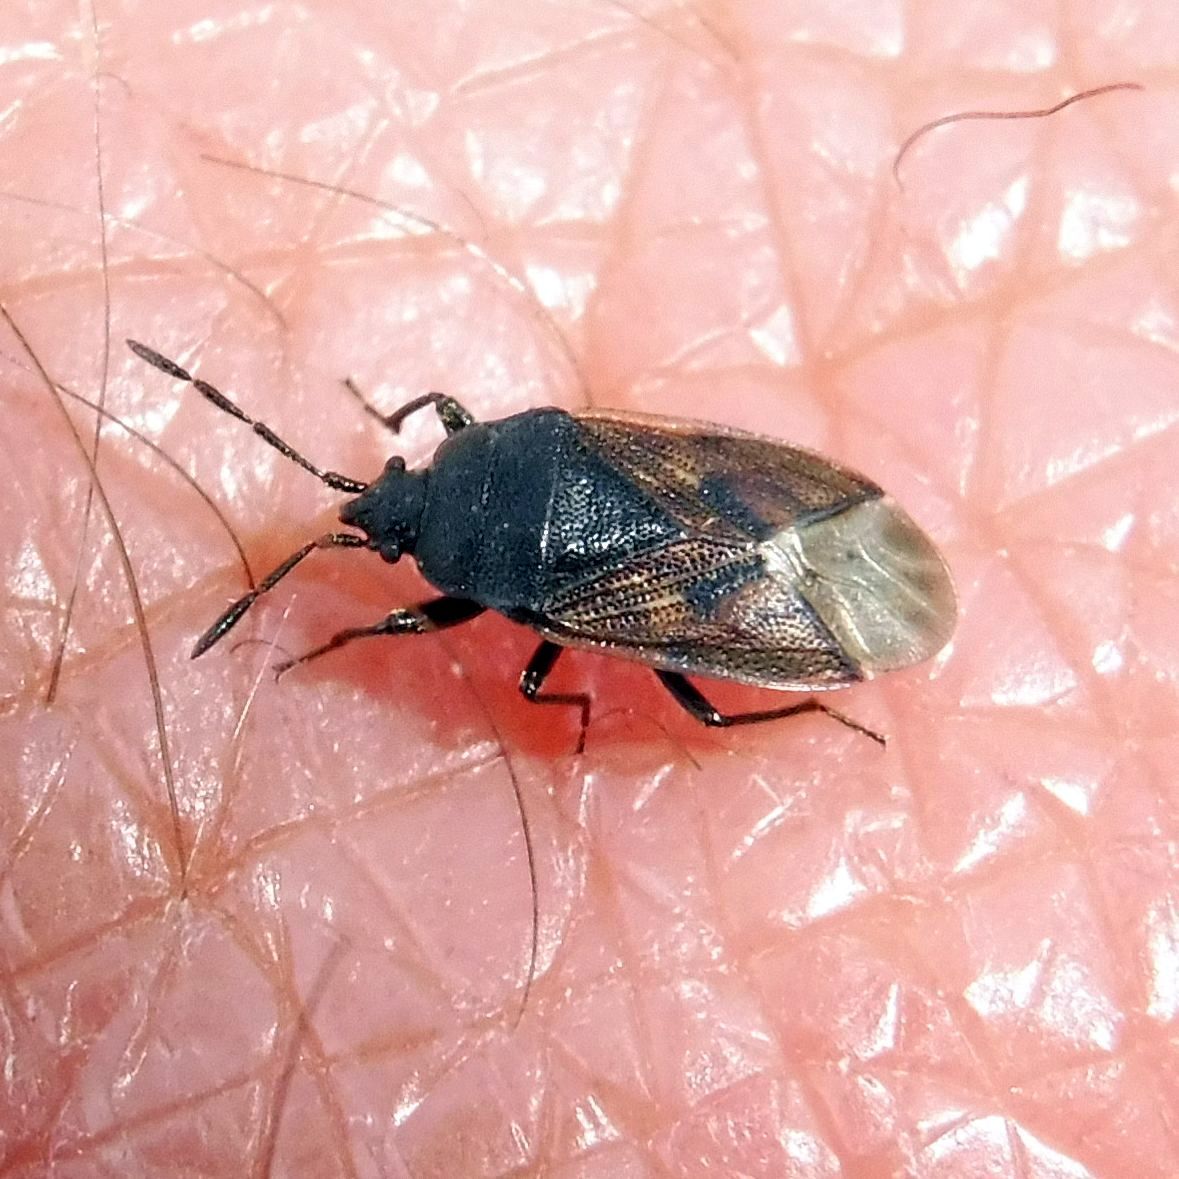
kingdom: Animalia
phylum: Arthropoda
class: Insecta
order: Hemiptera
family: Rhyparochromidae
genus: Drymus
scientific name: Drymus sylvaticus
